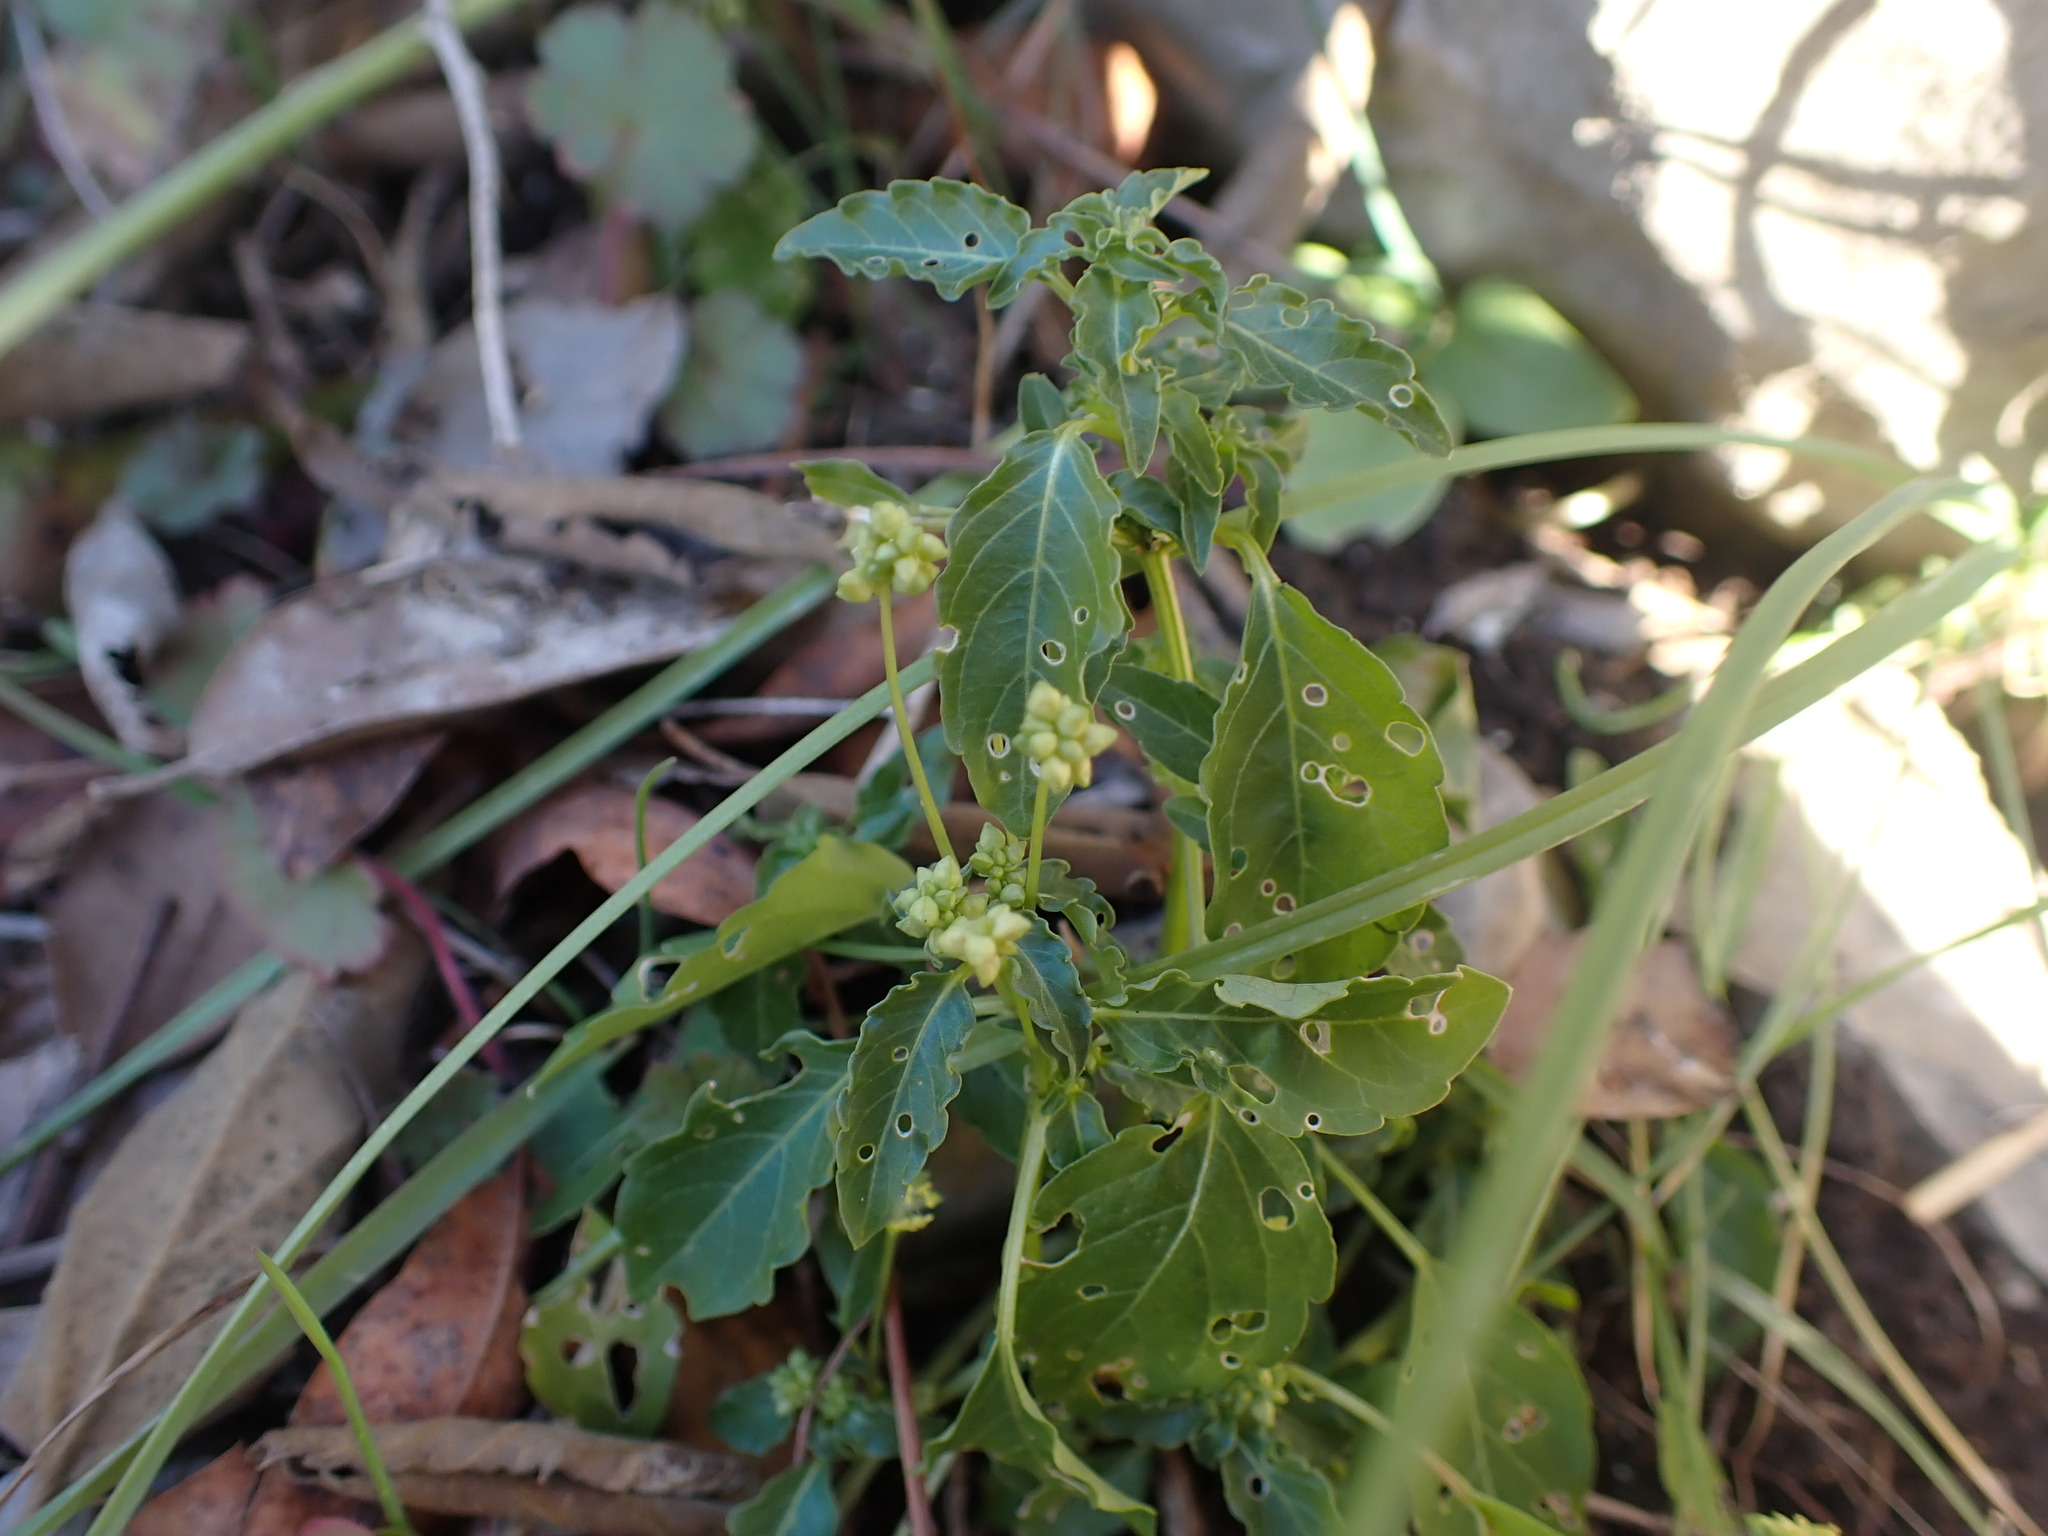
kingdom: Plantae
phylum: Tracheophyta
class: Magnoliopsida
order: Malpighiales
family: Euphorbiaceae
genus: Mercurialis
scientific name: Mercurialis annua
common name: Annual mercury
